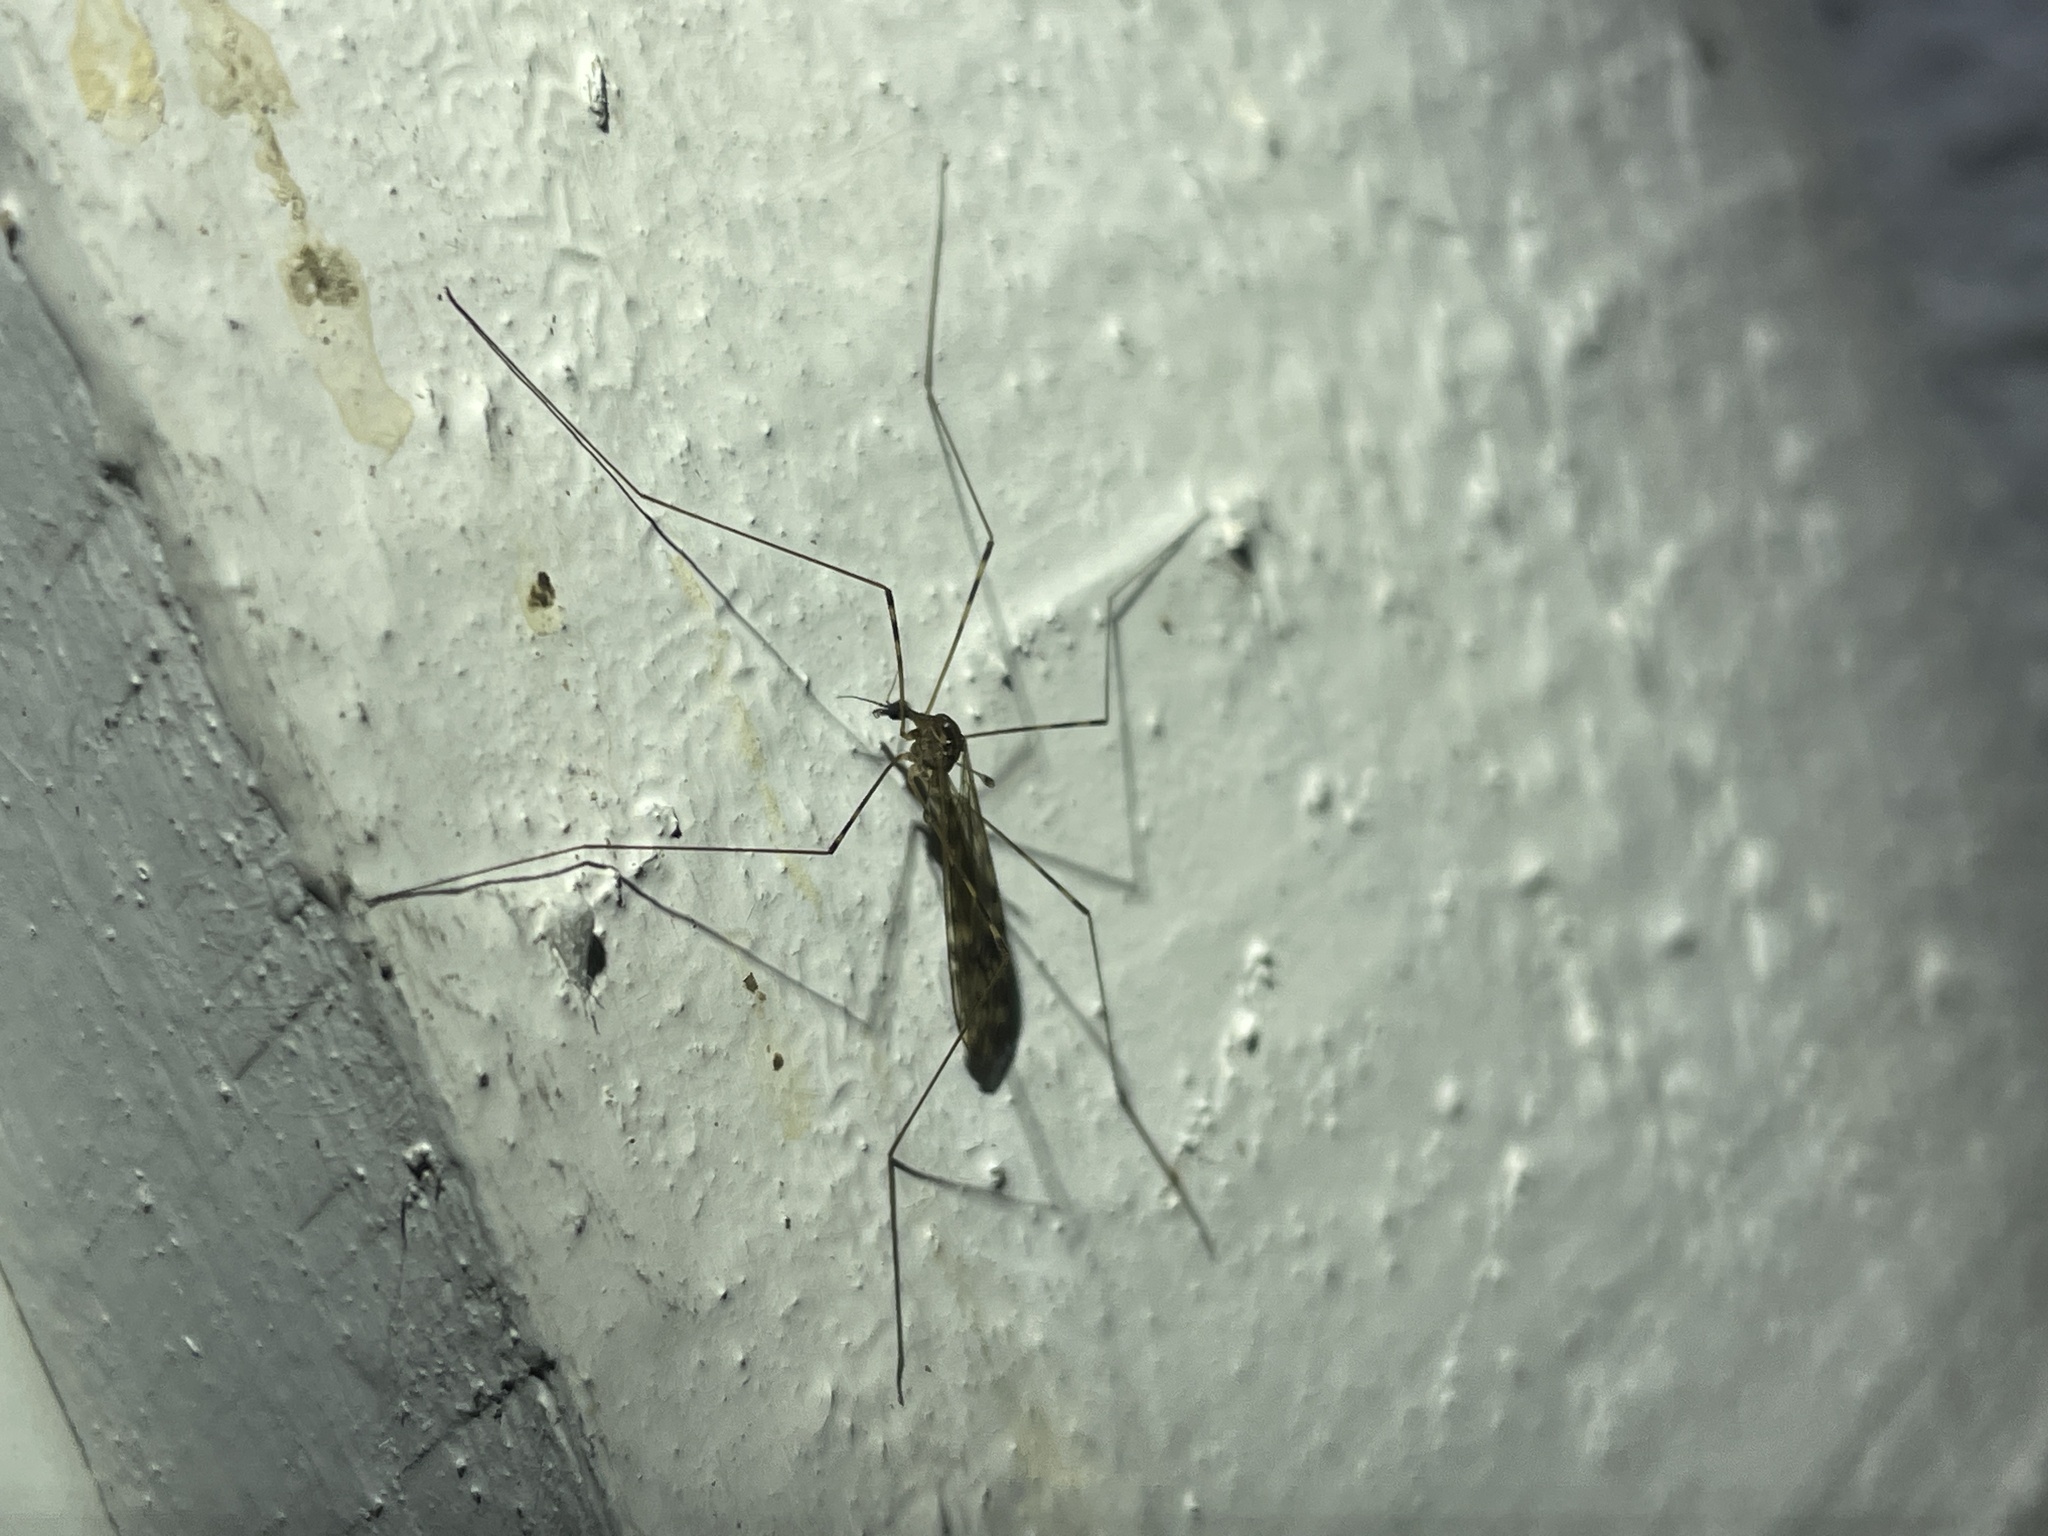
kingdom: Animalia
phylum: Arthropoda
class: Insecta
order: Diptera
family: Limoniidae
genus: Limonia
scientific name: Limonia nubeculosa
